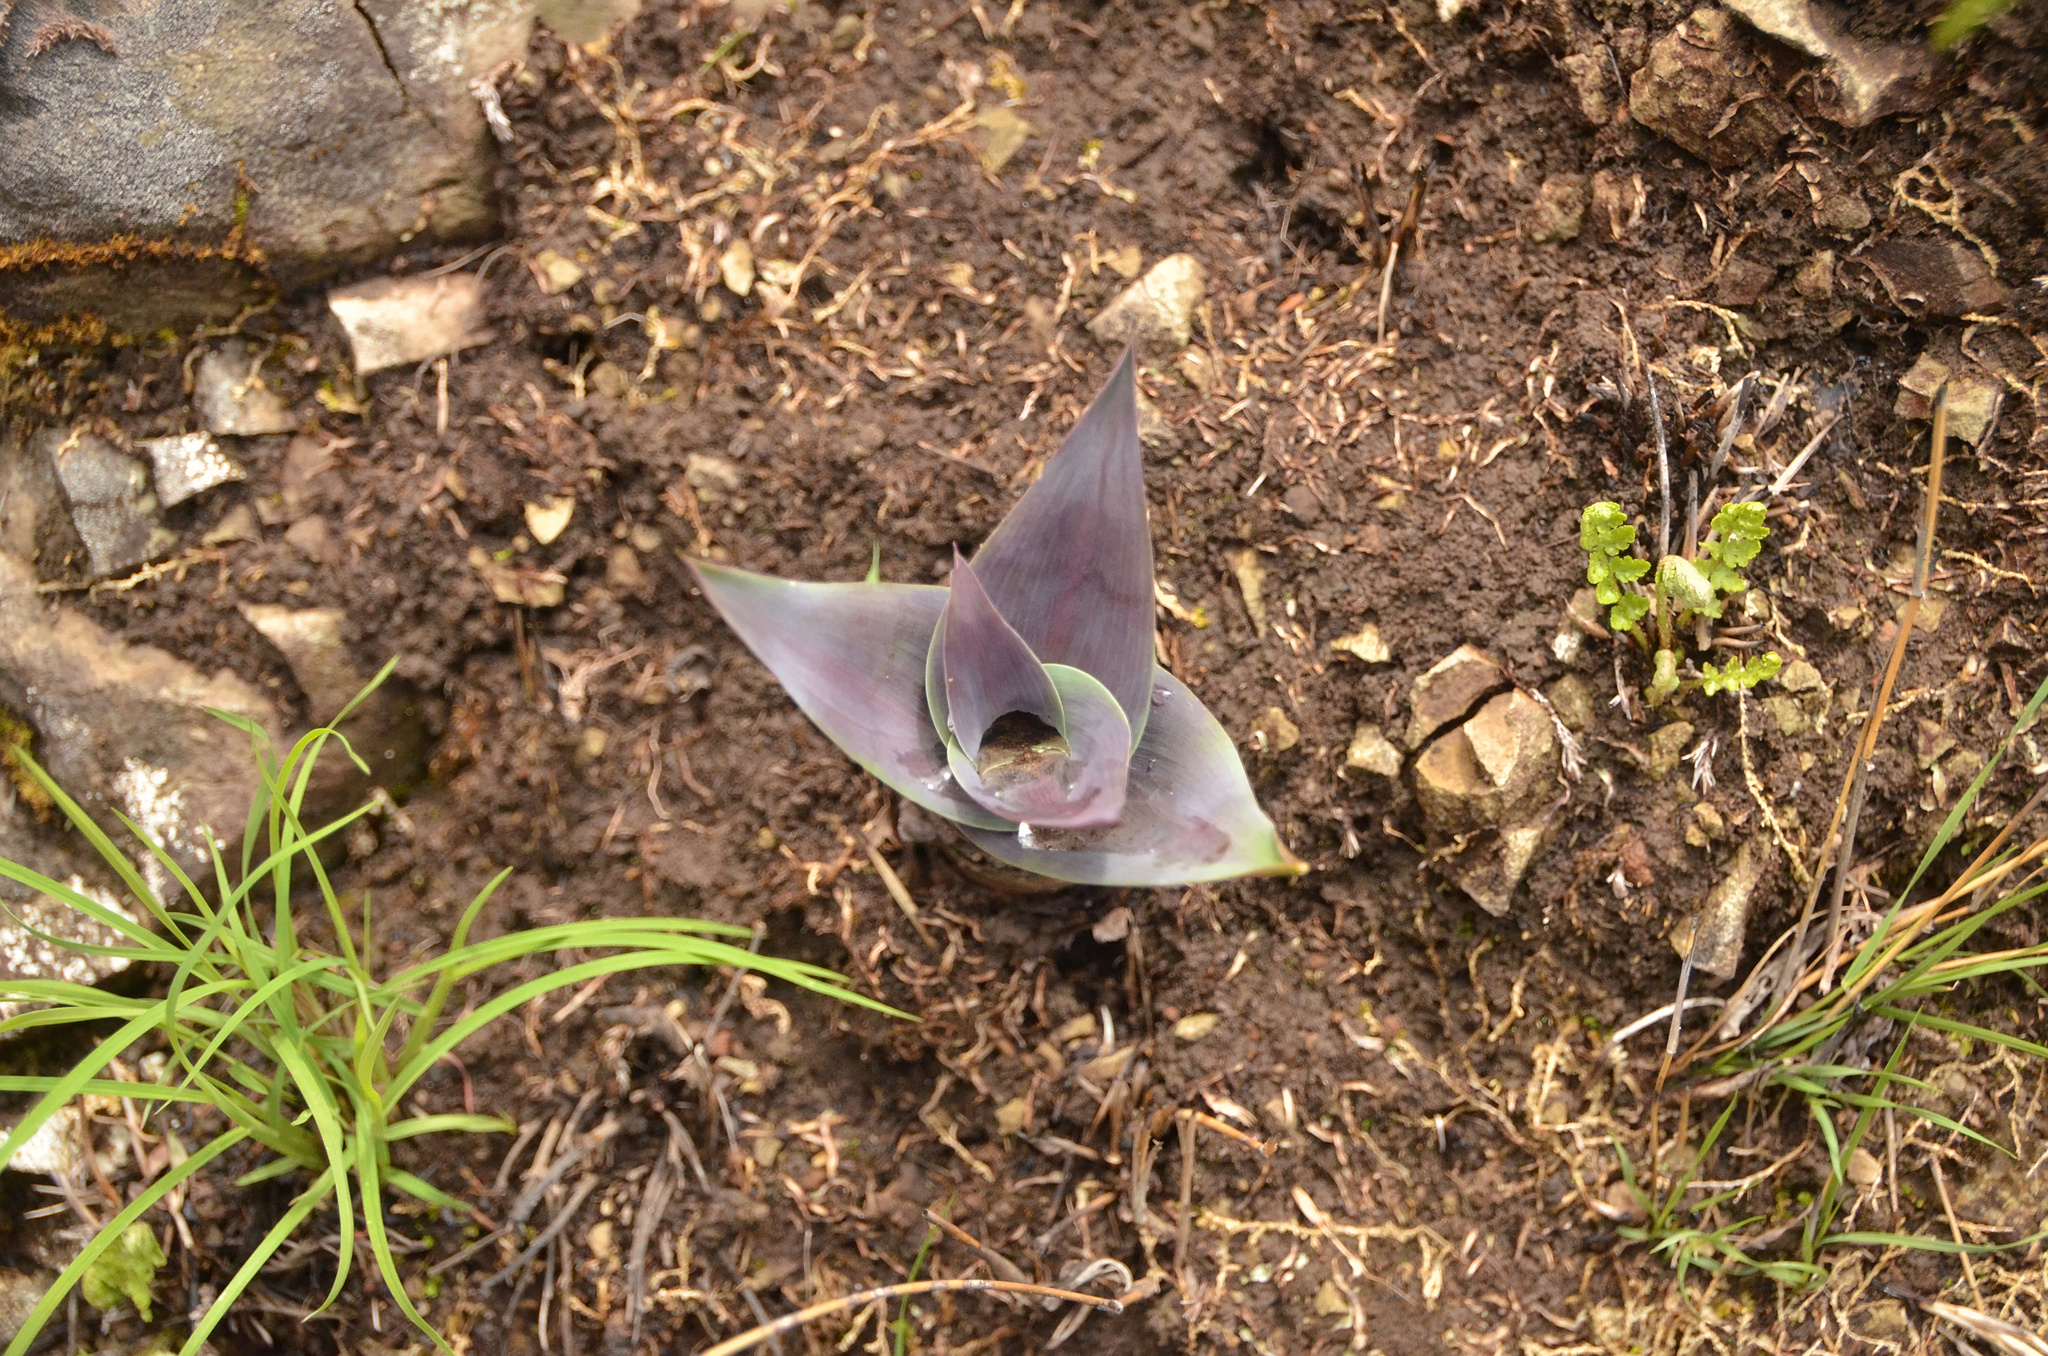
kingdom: Plantae
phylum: Tracheophyta
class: Liliopsida
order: Asparagales
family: Asparagaceae
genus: Merwilla
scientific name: Merwilla plumbea
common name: Blue-squill
